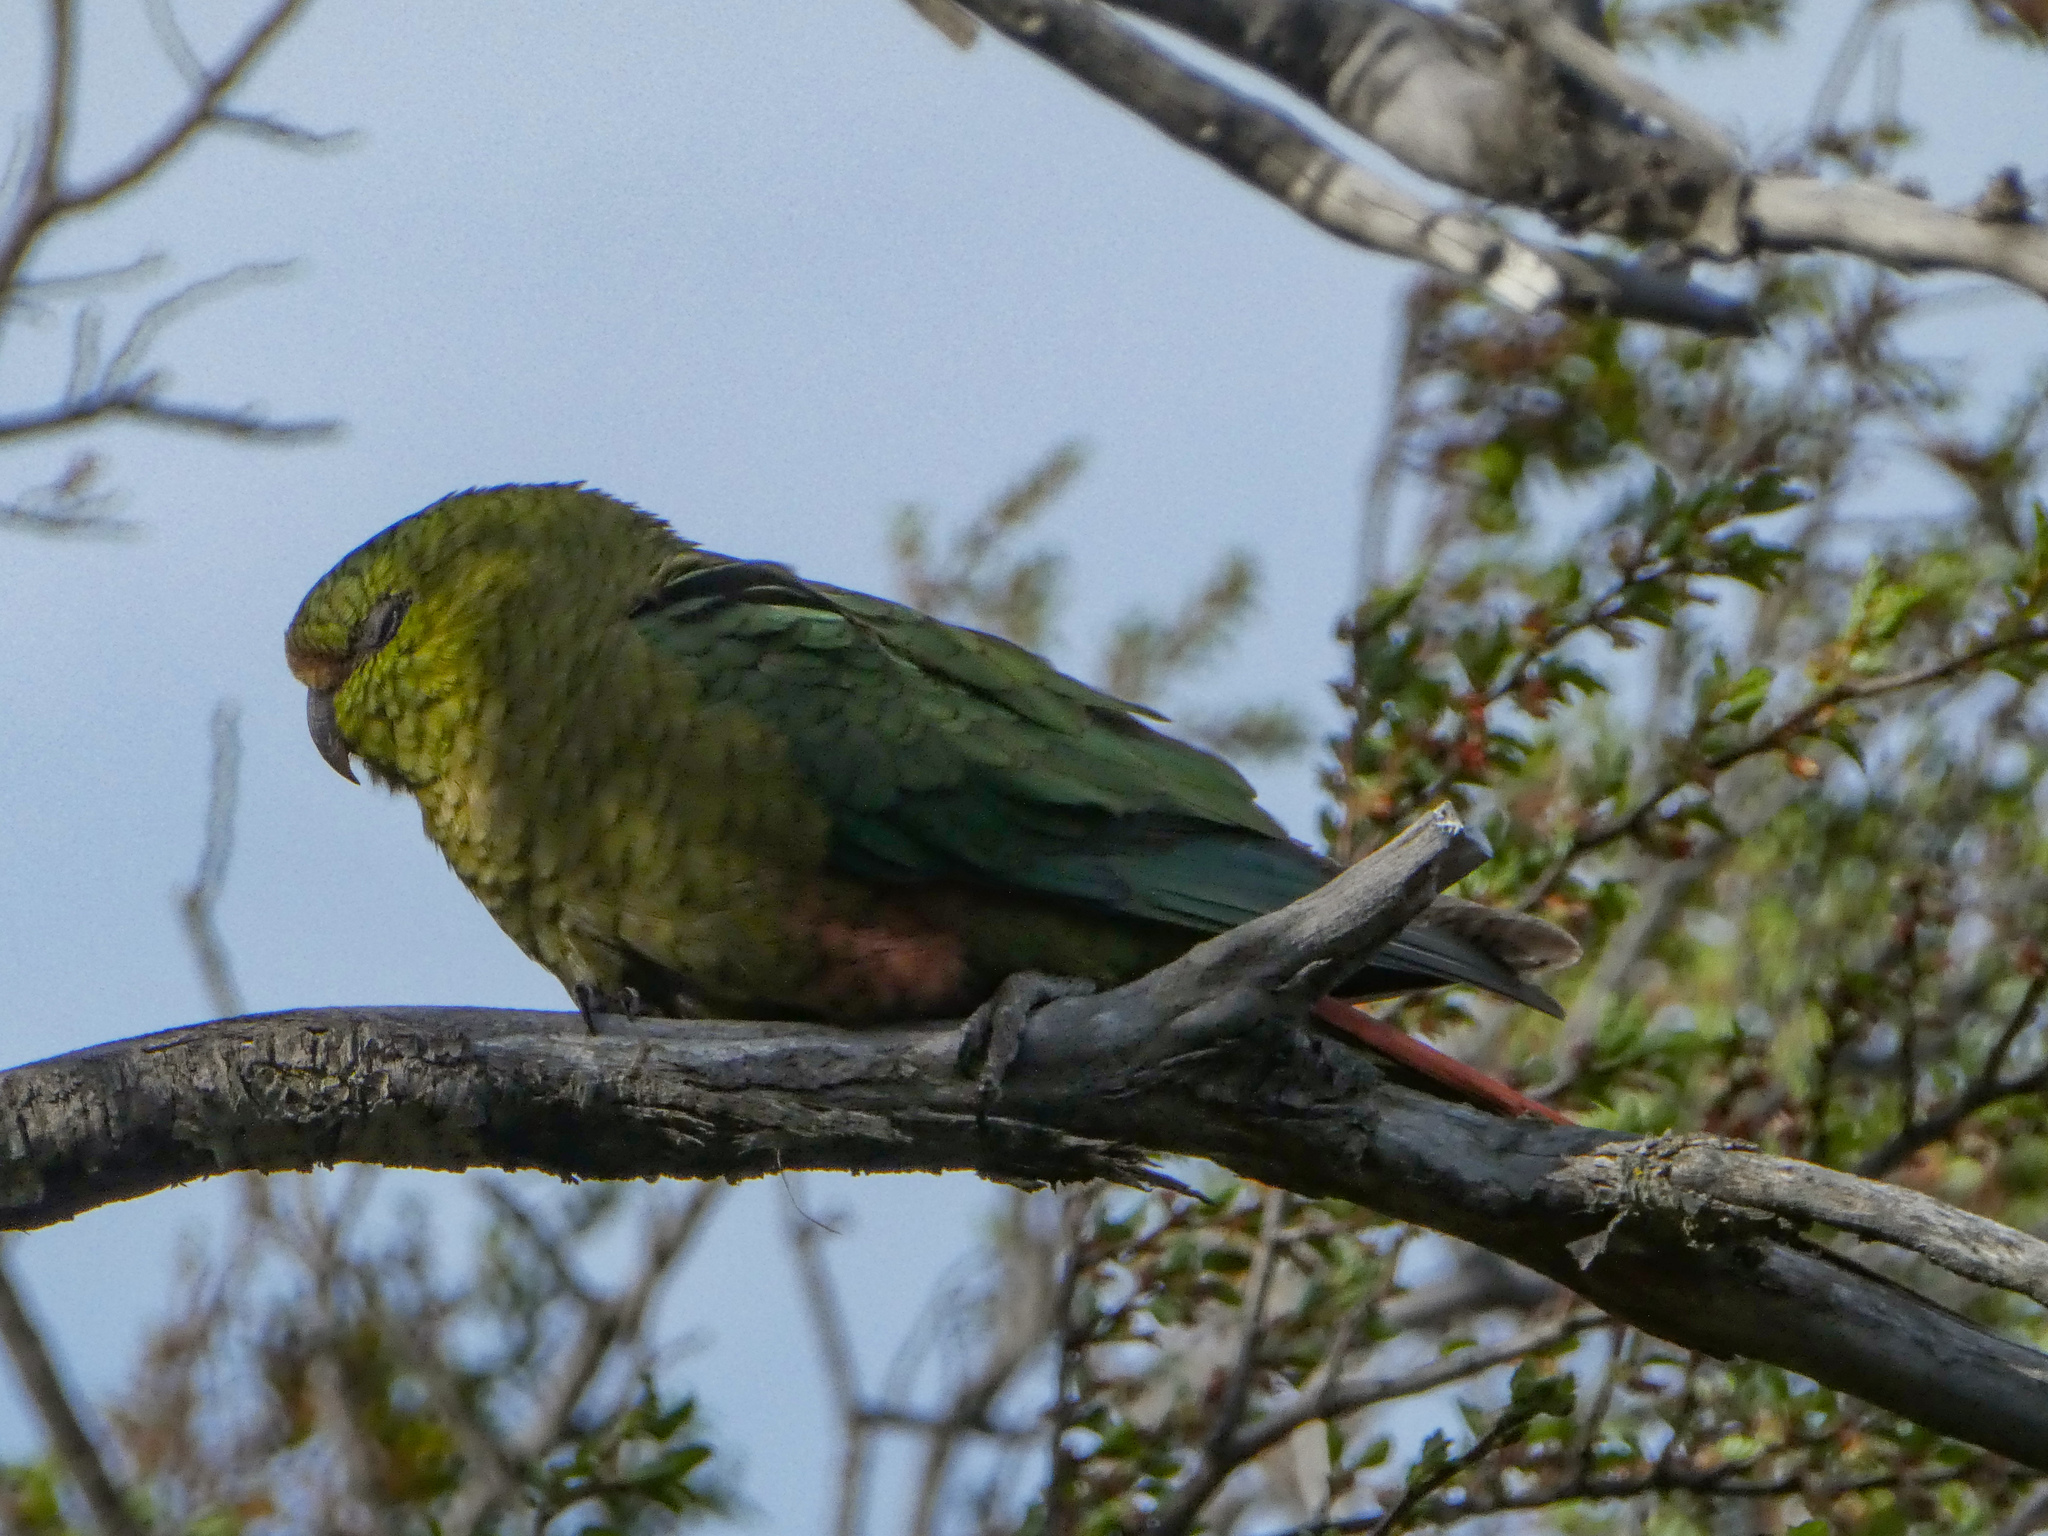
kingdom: Animalia
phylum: Chordata
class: Aves
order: Psittaciformes
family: Psittacidae
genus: Enicognathus
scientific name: Enicognathus ferrugineus
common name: Austral parakeet
